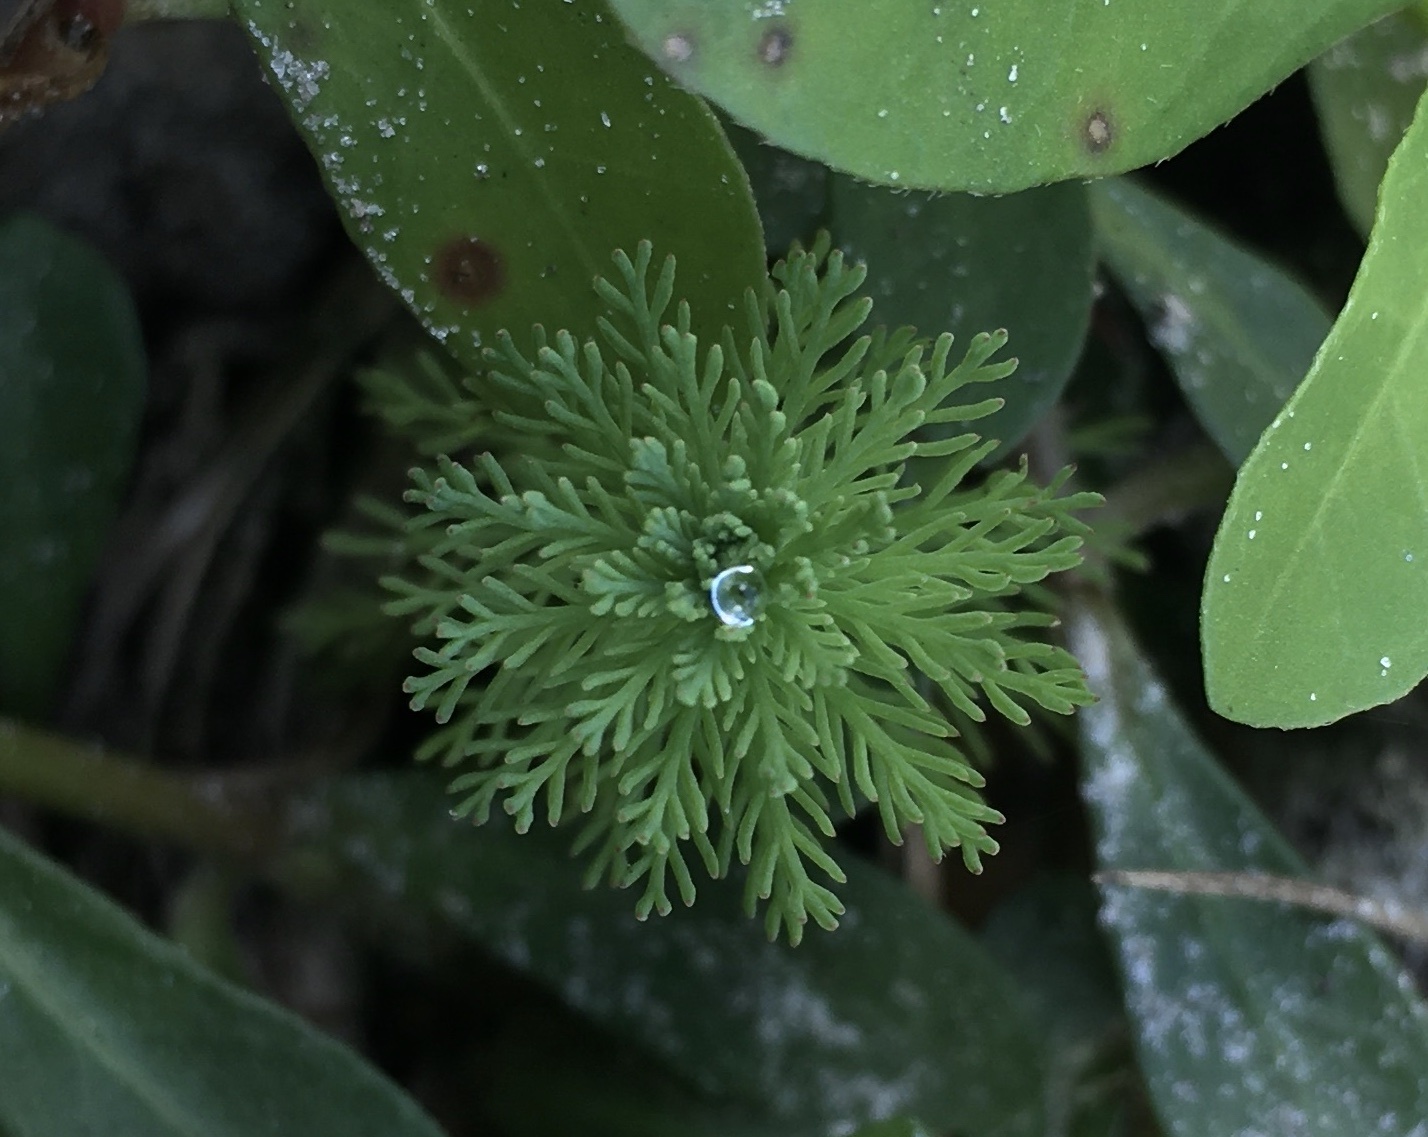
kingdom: Plantae
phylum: Tracheophyta
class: Magnoliopsida
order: Saxifragales
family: Haloragaceae
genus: Myriophyllum
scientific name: Myriophyllum aquaticum
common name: Parrot's feather
